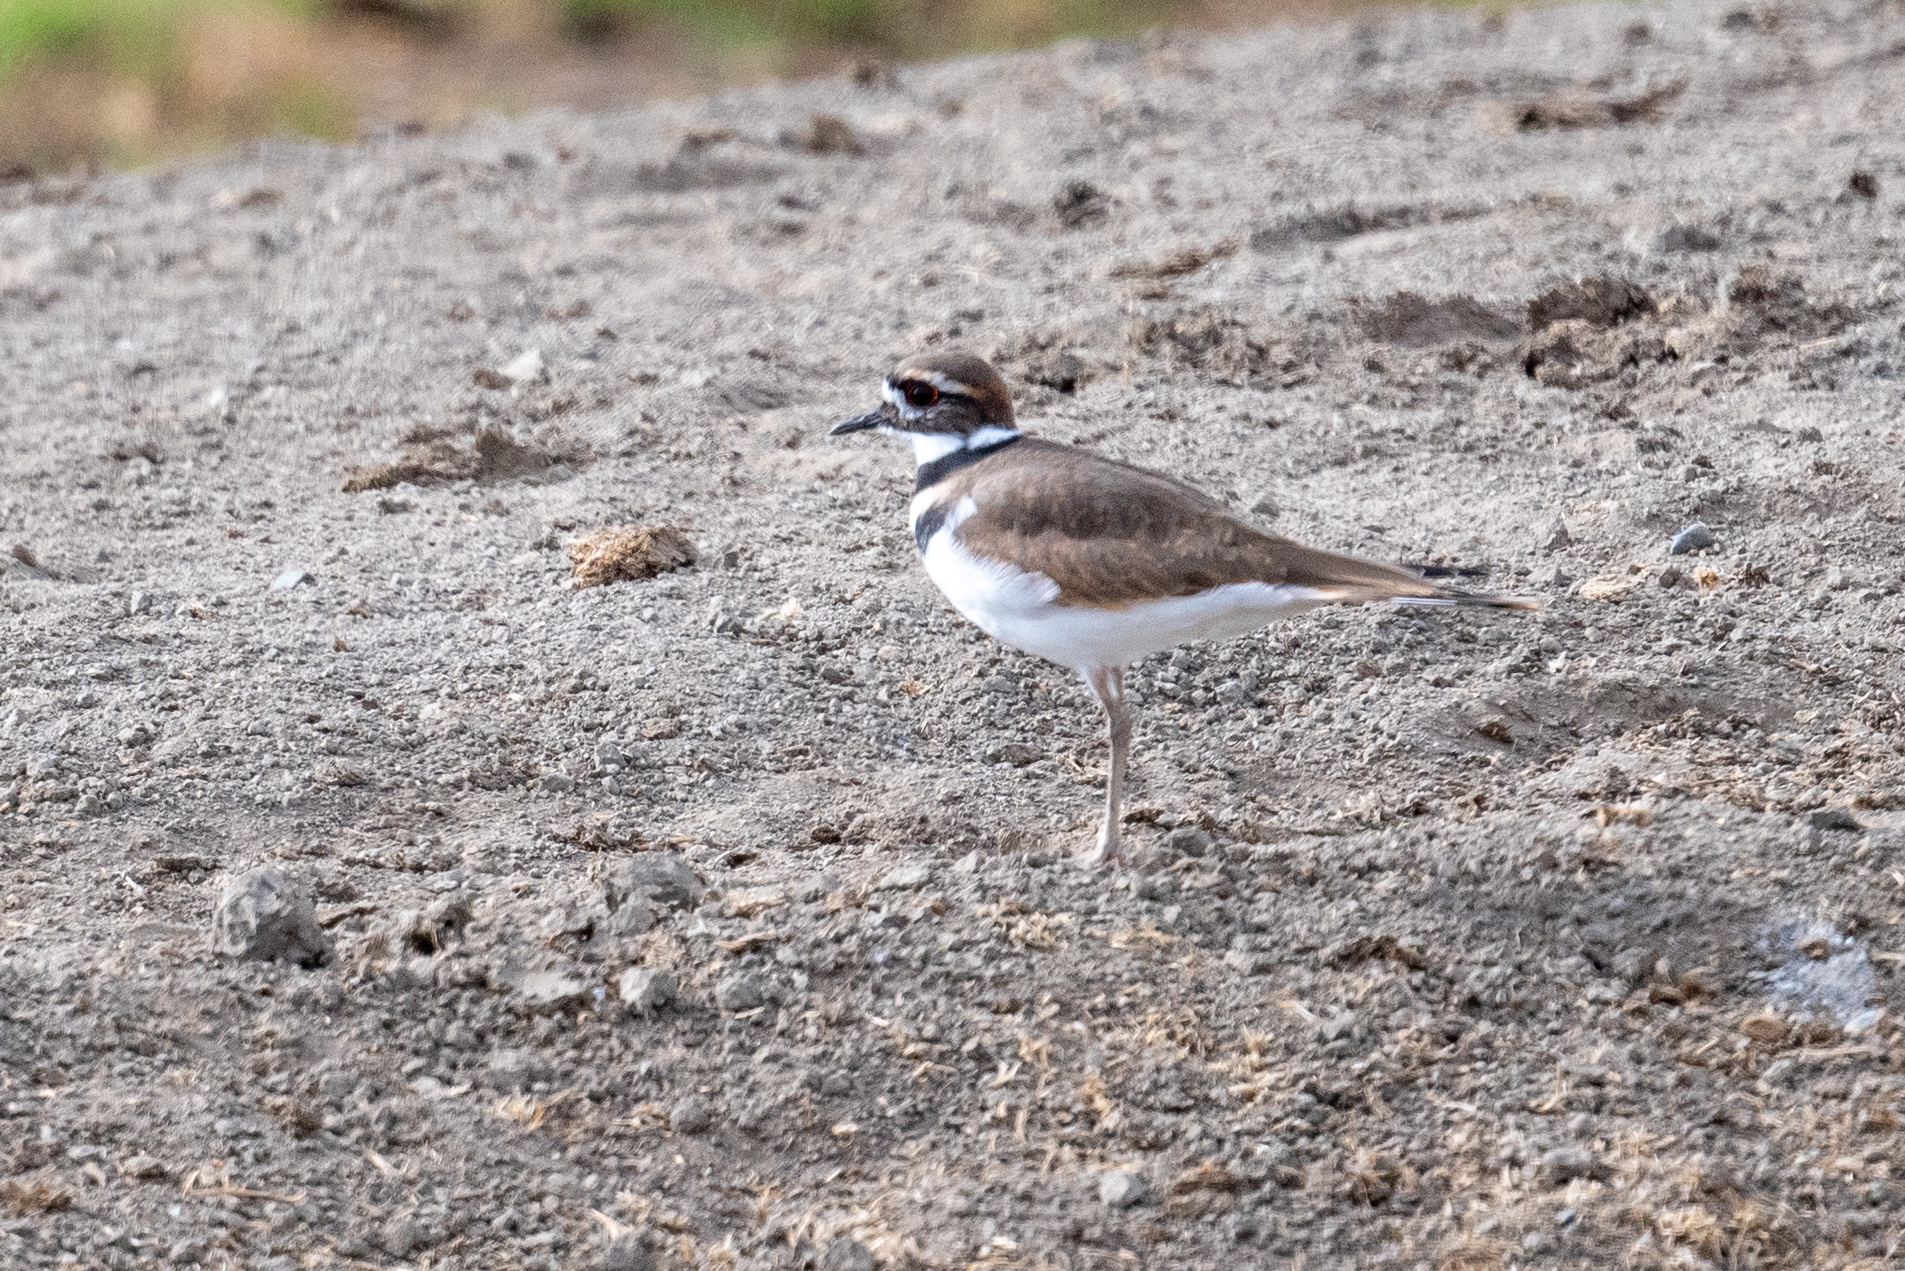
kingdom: Animalia
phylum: Chordata
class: Aves
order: Charadriiformes
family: Charadriidae
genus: Charadrius
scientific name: Charadrius vociferus
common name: Killdeer
